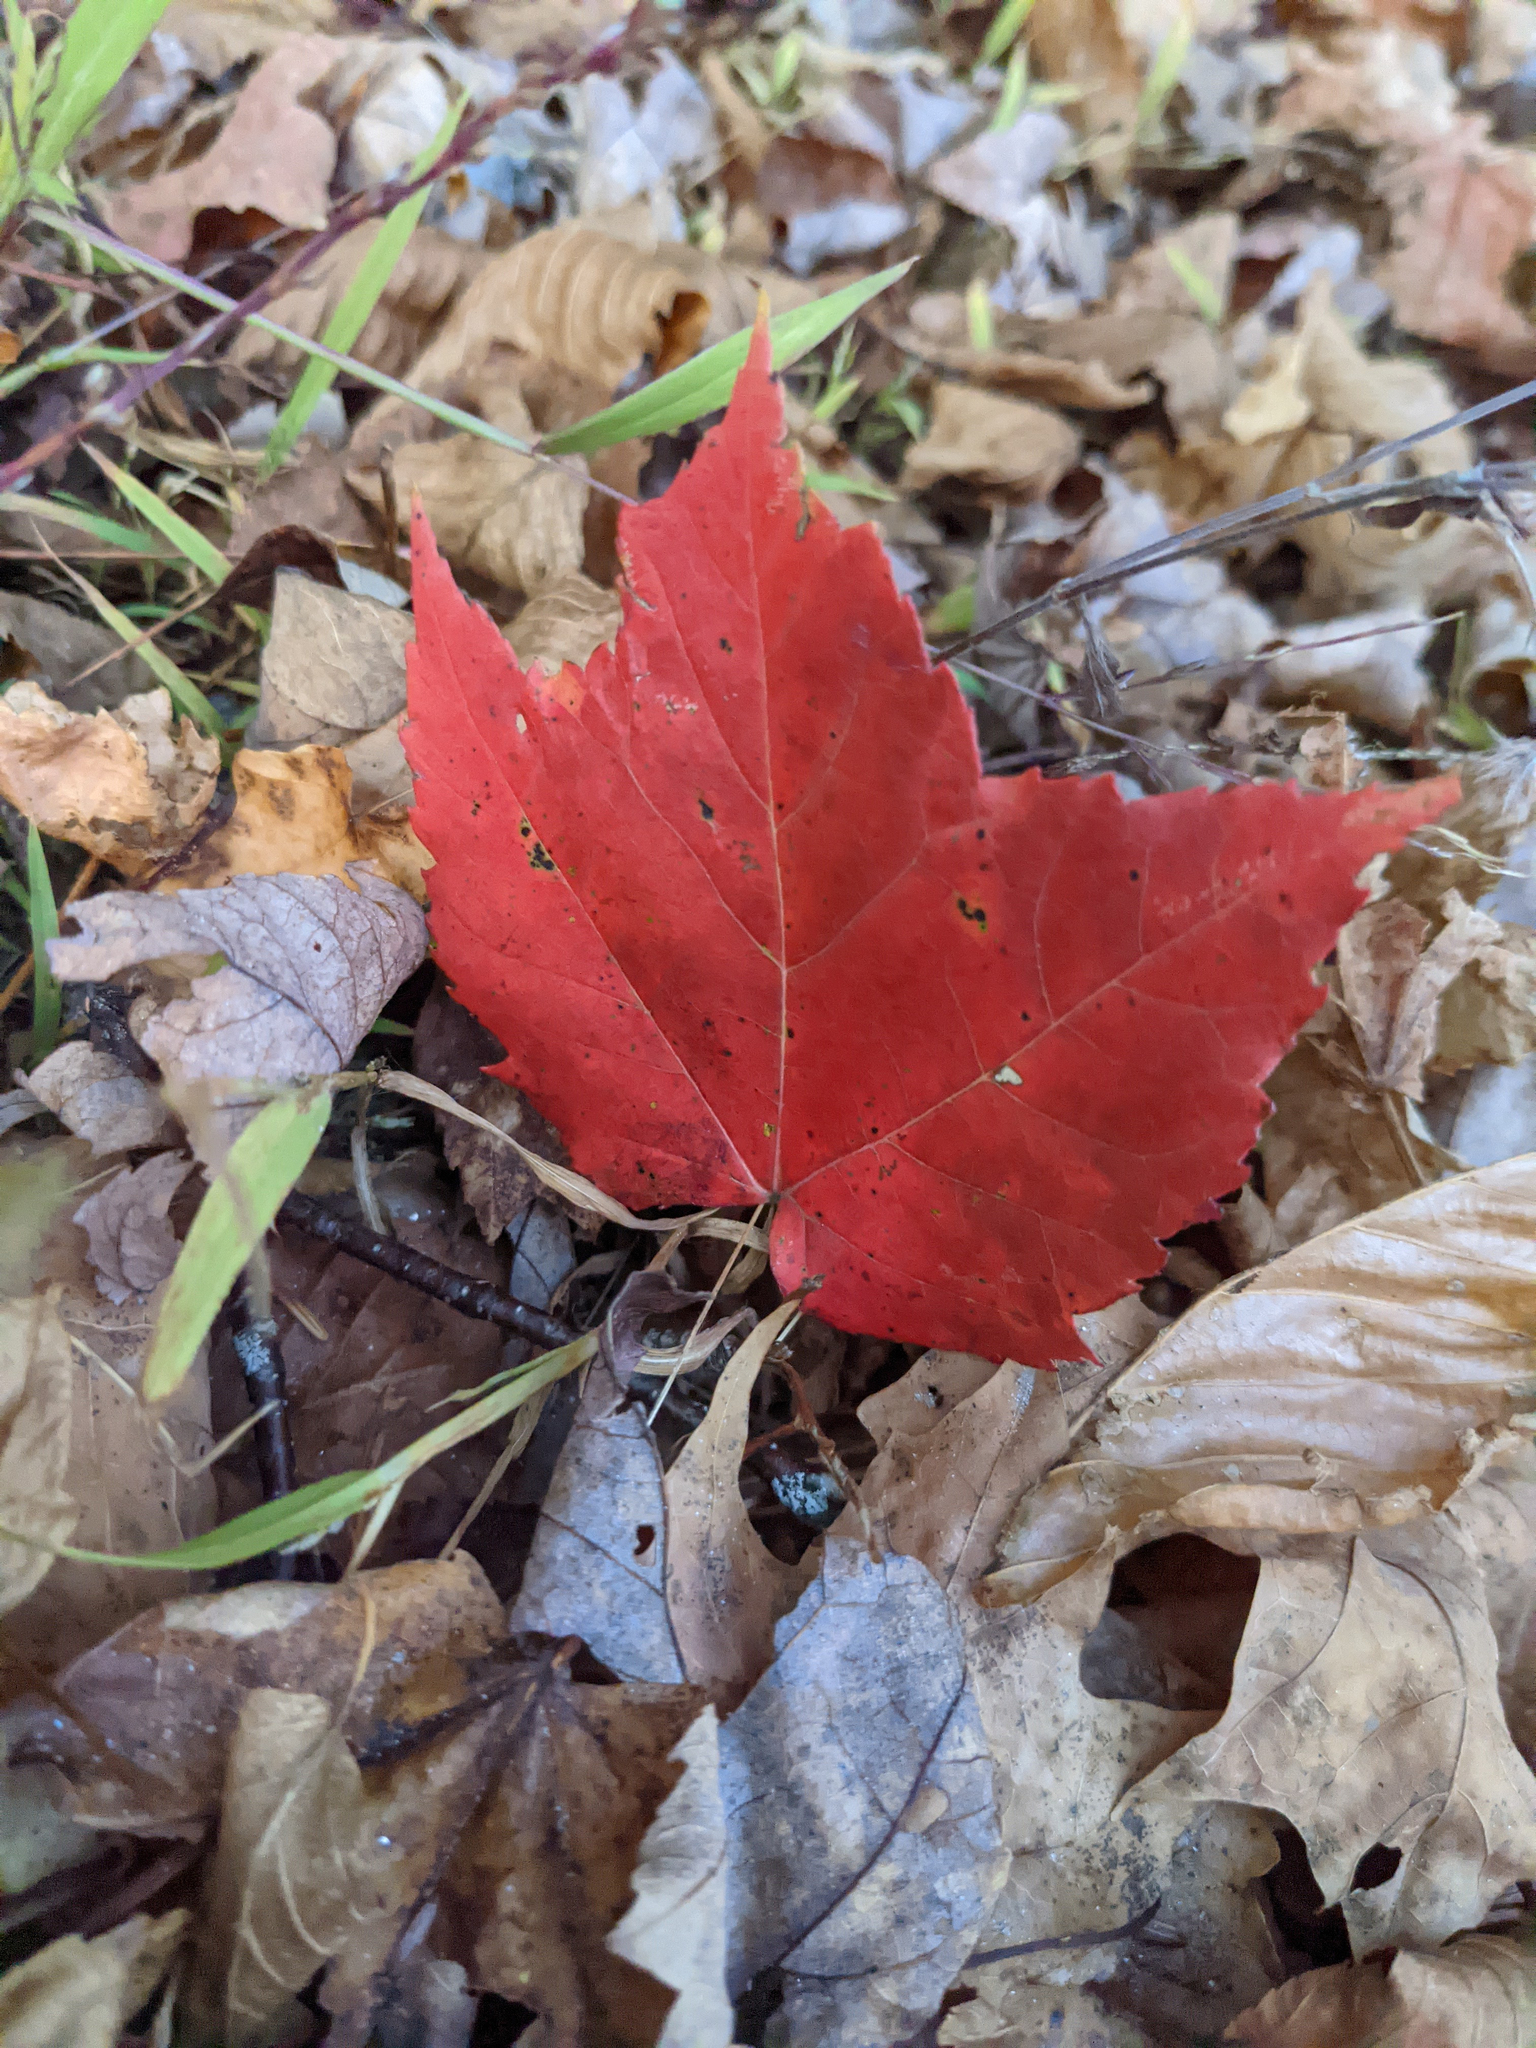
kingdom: Plantae
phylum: Tracheophyta
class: Magnoliopsida
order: Sapindales
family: Sapindaceae
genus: Acer
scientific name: Acer rubrum
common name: Red maple
